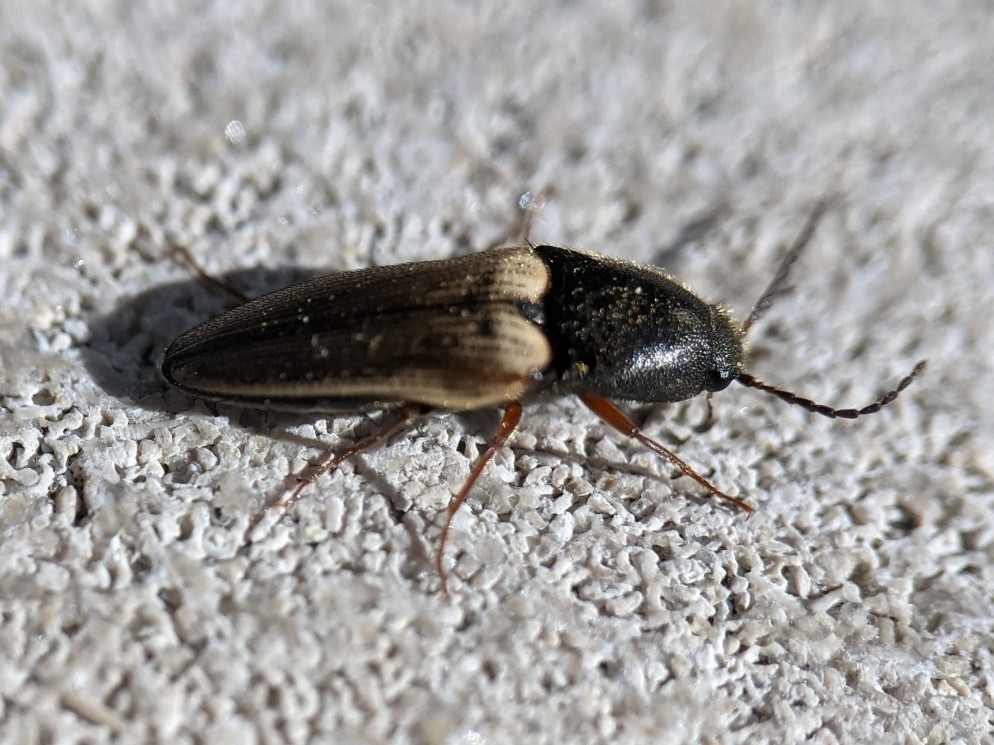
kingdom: Animalia
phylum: Arthropoda
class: Insecta
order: Coleoptera
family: Elateridae
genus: Ampedus
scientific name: Ampedus nigricollis
